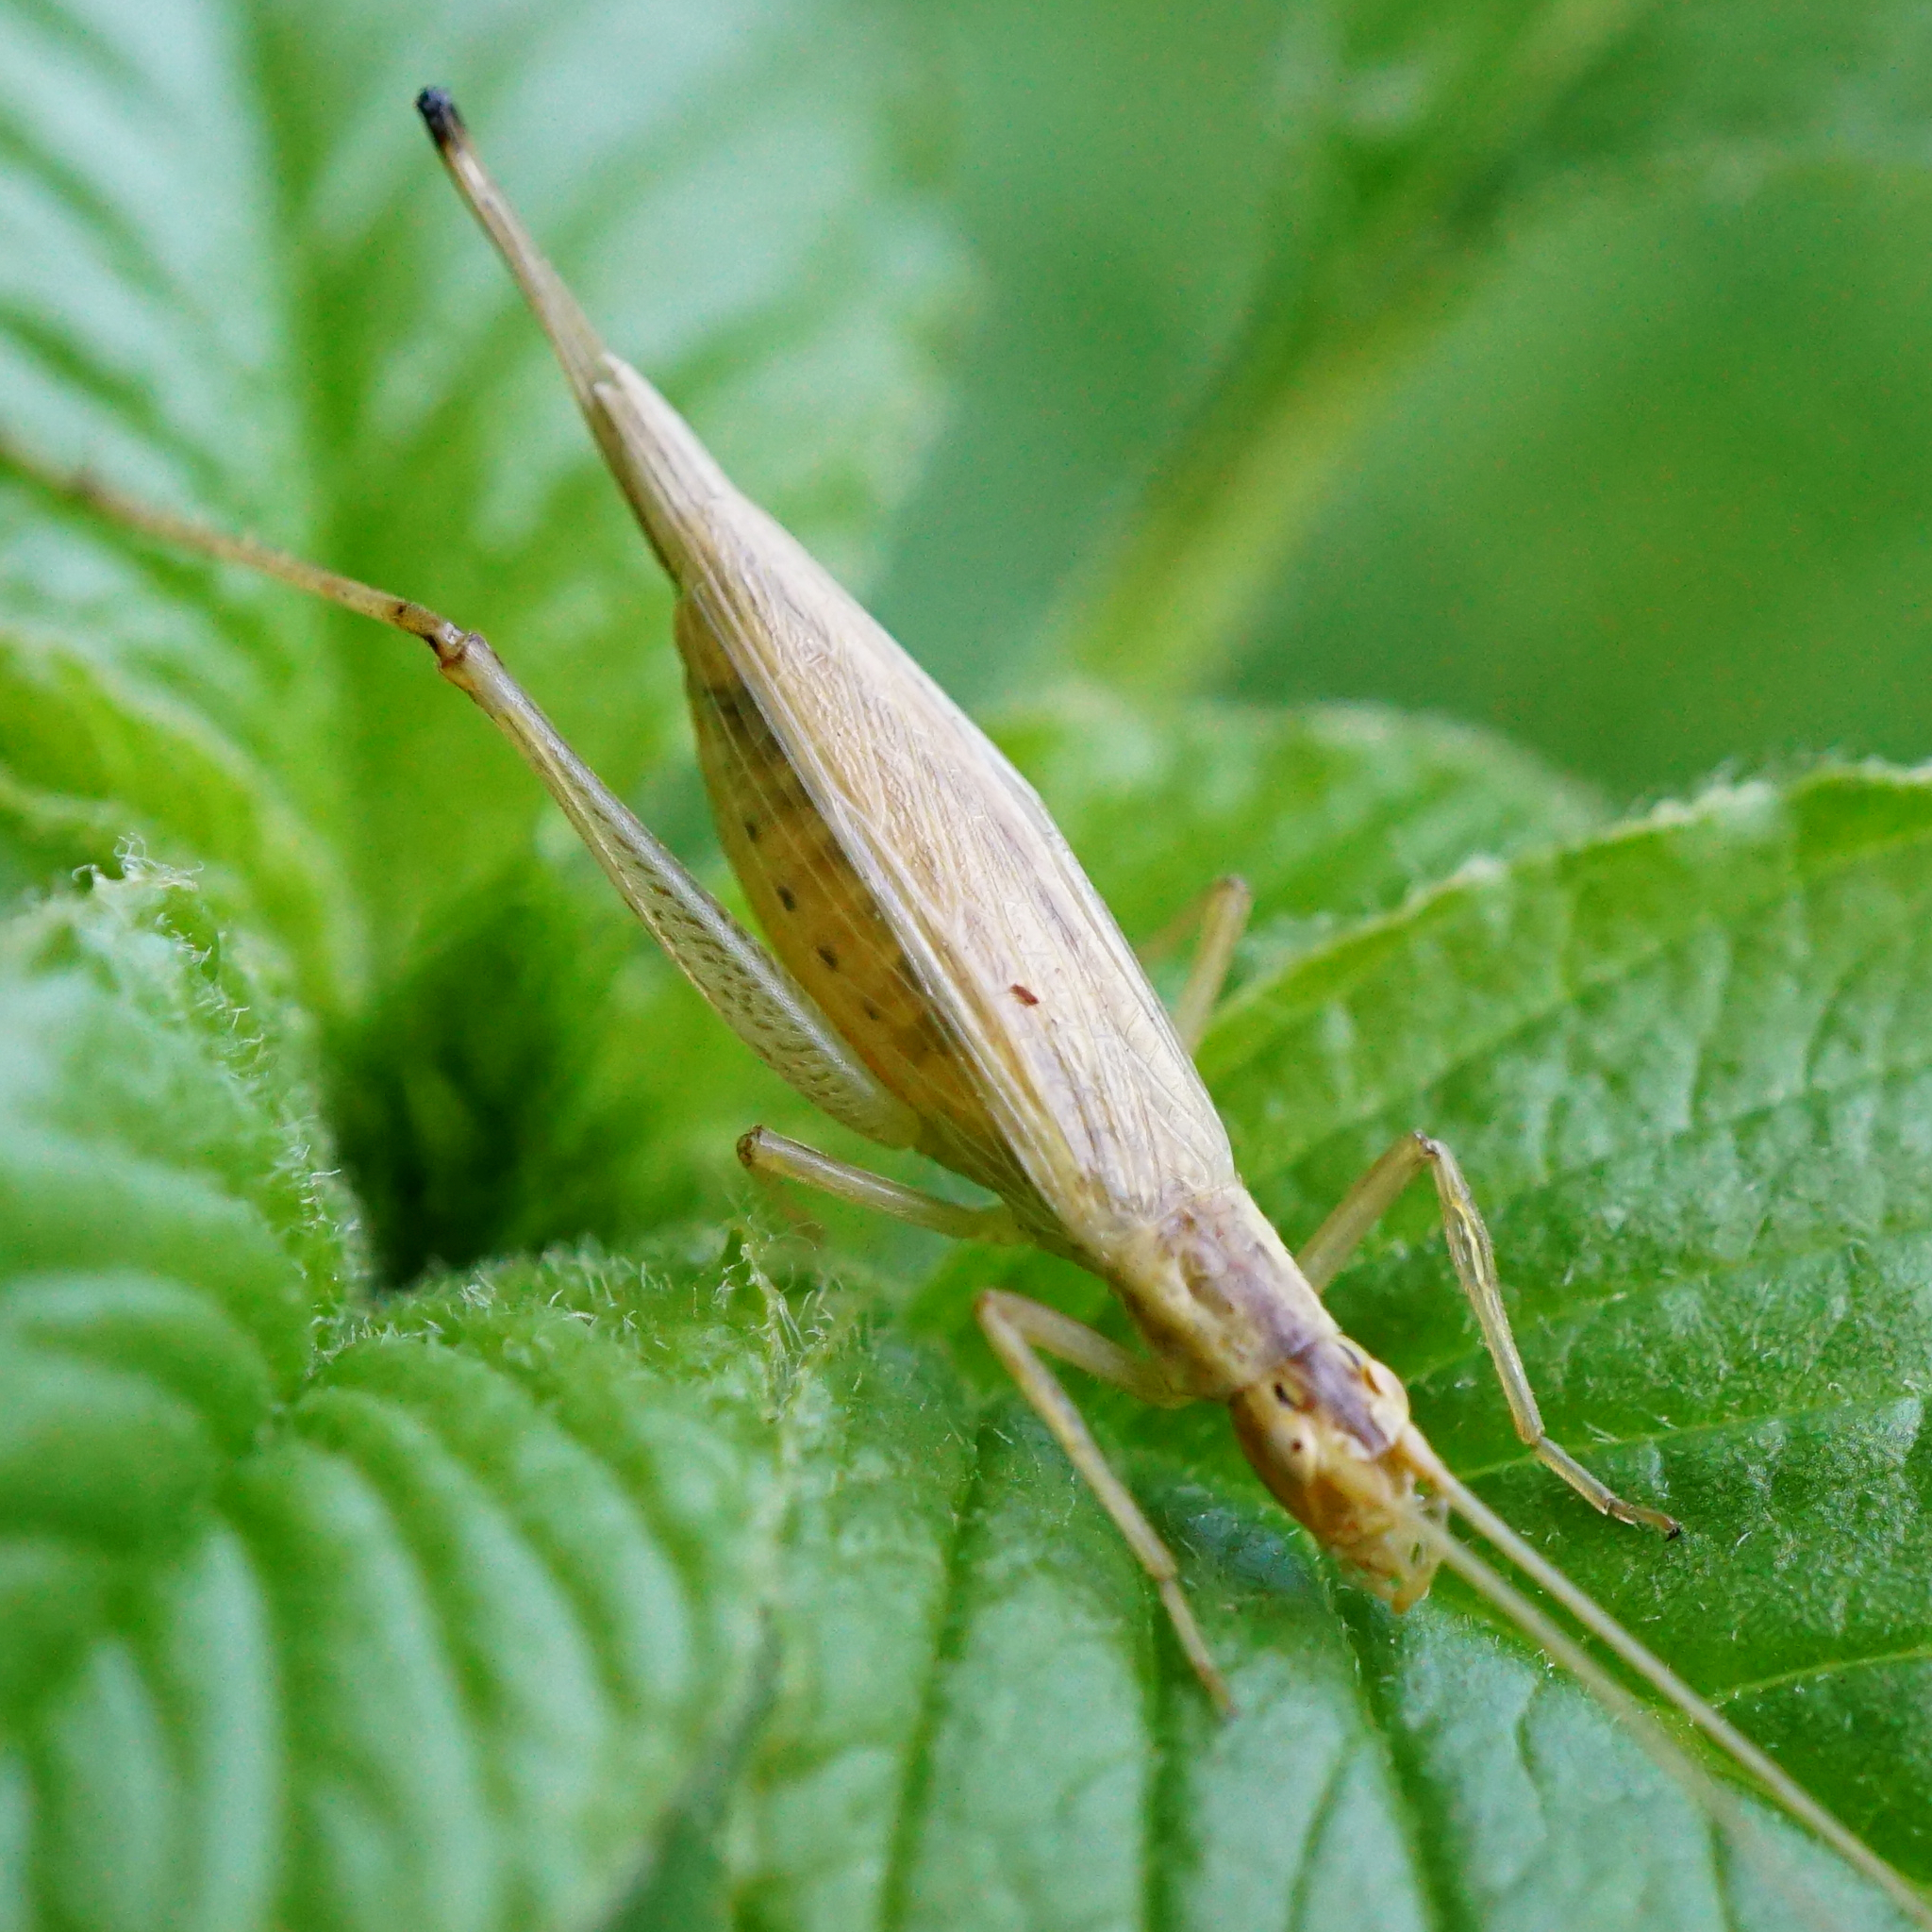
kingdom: Animalia
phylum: Arthropoda
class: Insecta
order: Orthoptera
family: Gryllidae
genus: Oecanthus
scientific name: Oecanthus pellucens
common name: Tree-cricket
